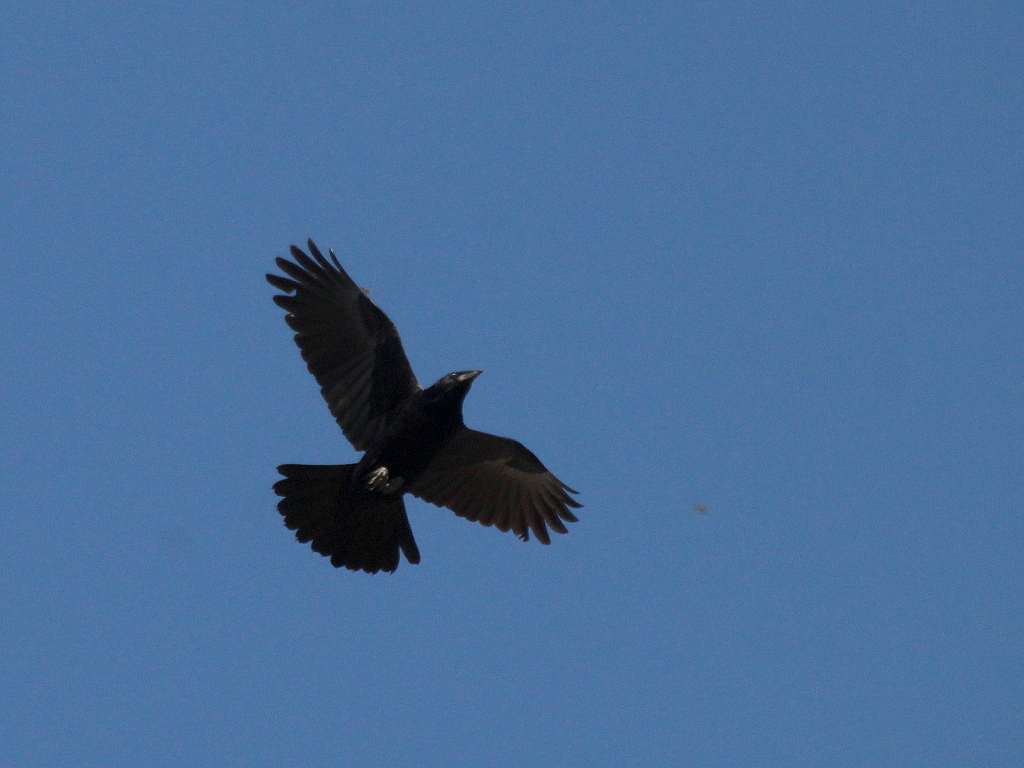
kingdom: Animalia
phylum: Chordata
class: Aves
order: Passeriformes
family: Corvidae
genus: Corvus
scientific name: Corvus corone
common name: Carrion crow
